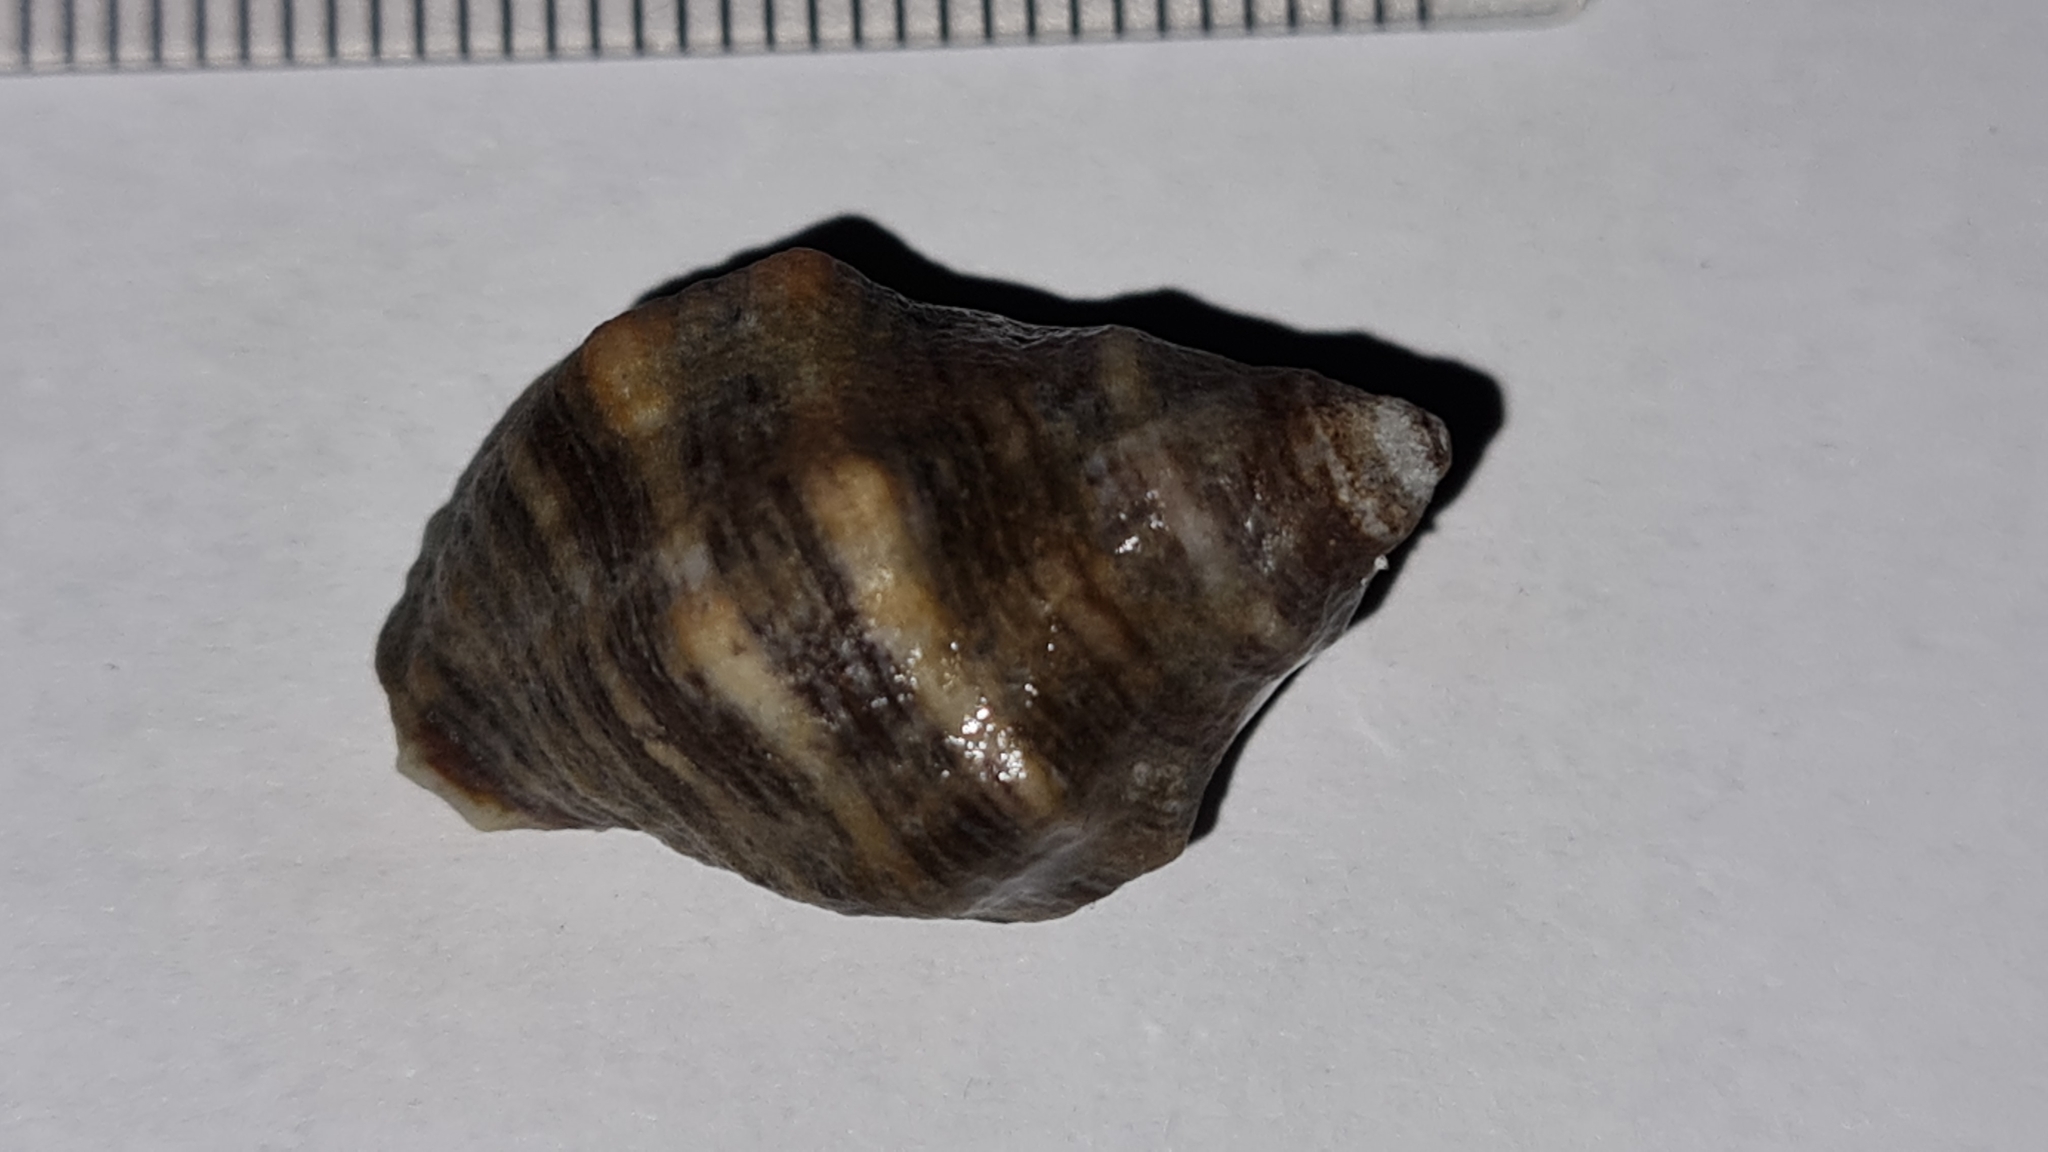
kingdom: Animalia
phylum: Mollusca
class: Gastropoda
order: Neogastropoda
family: Muricidae
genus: Stramonita
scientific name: Stramonita rustica
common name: Rustic rocksnail
